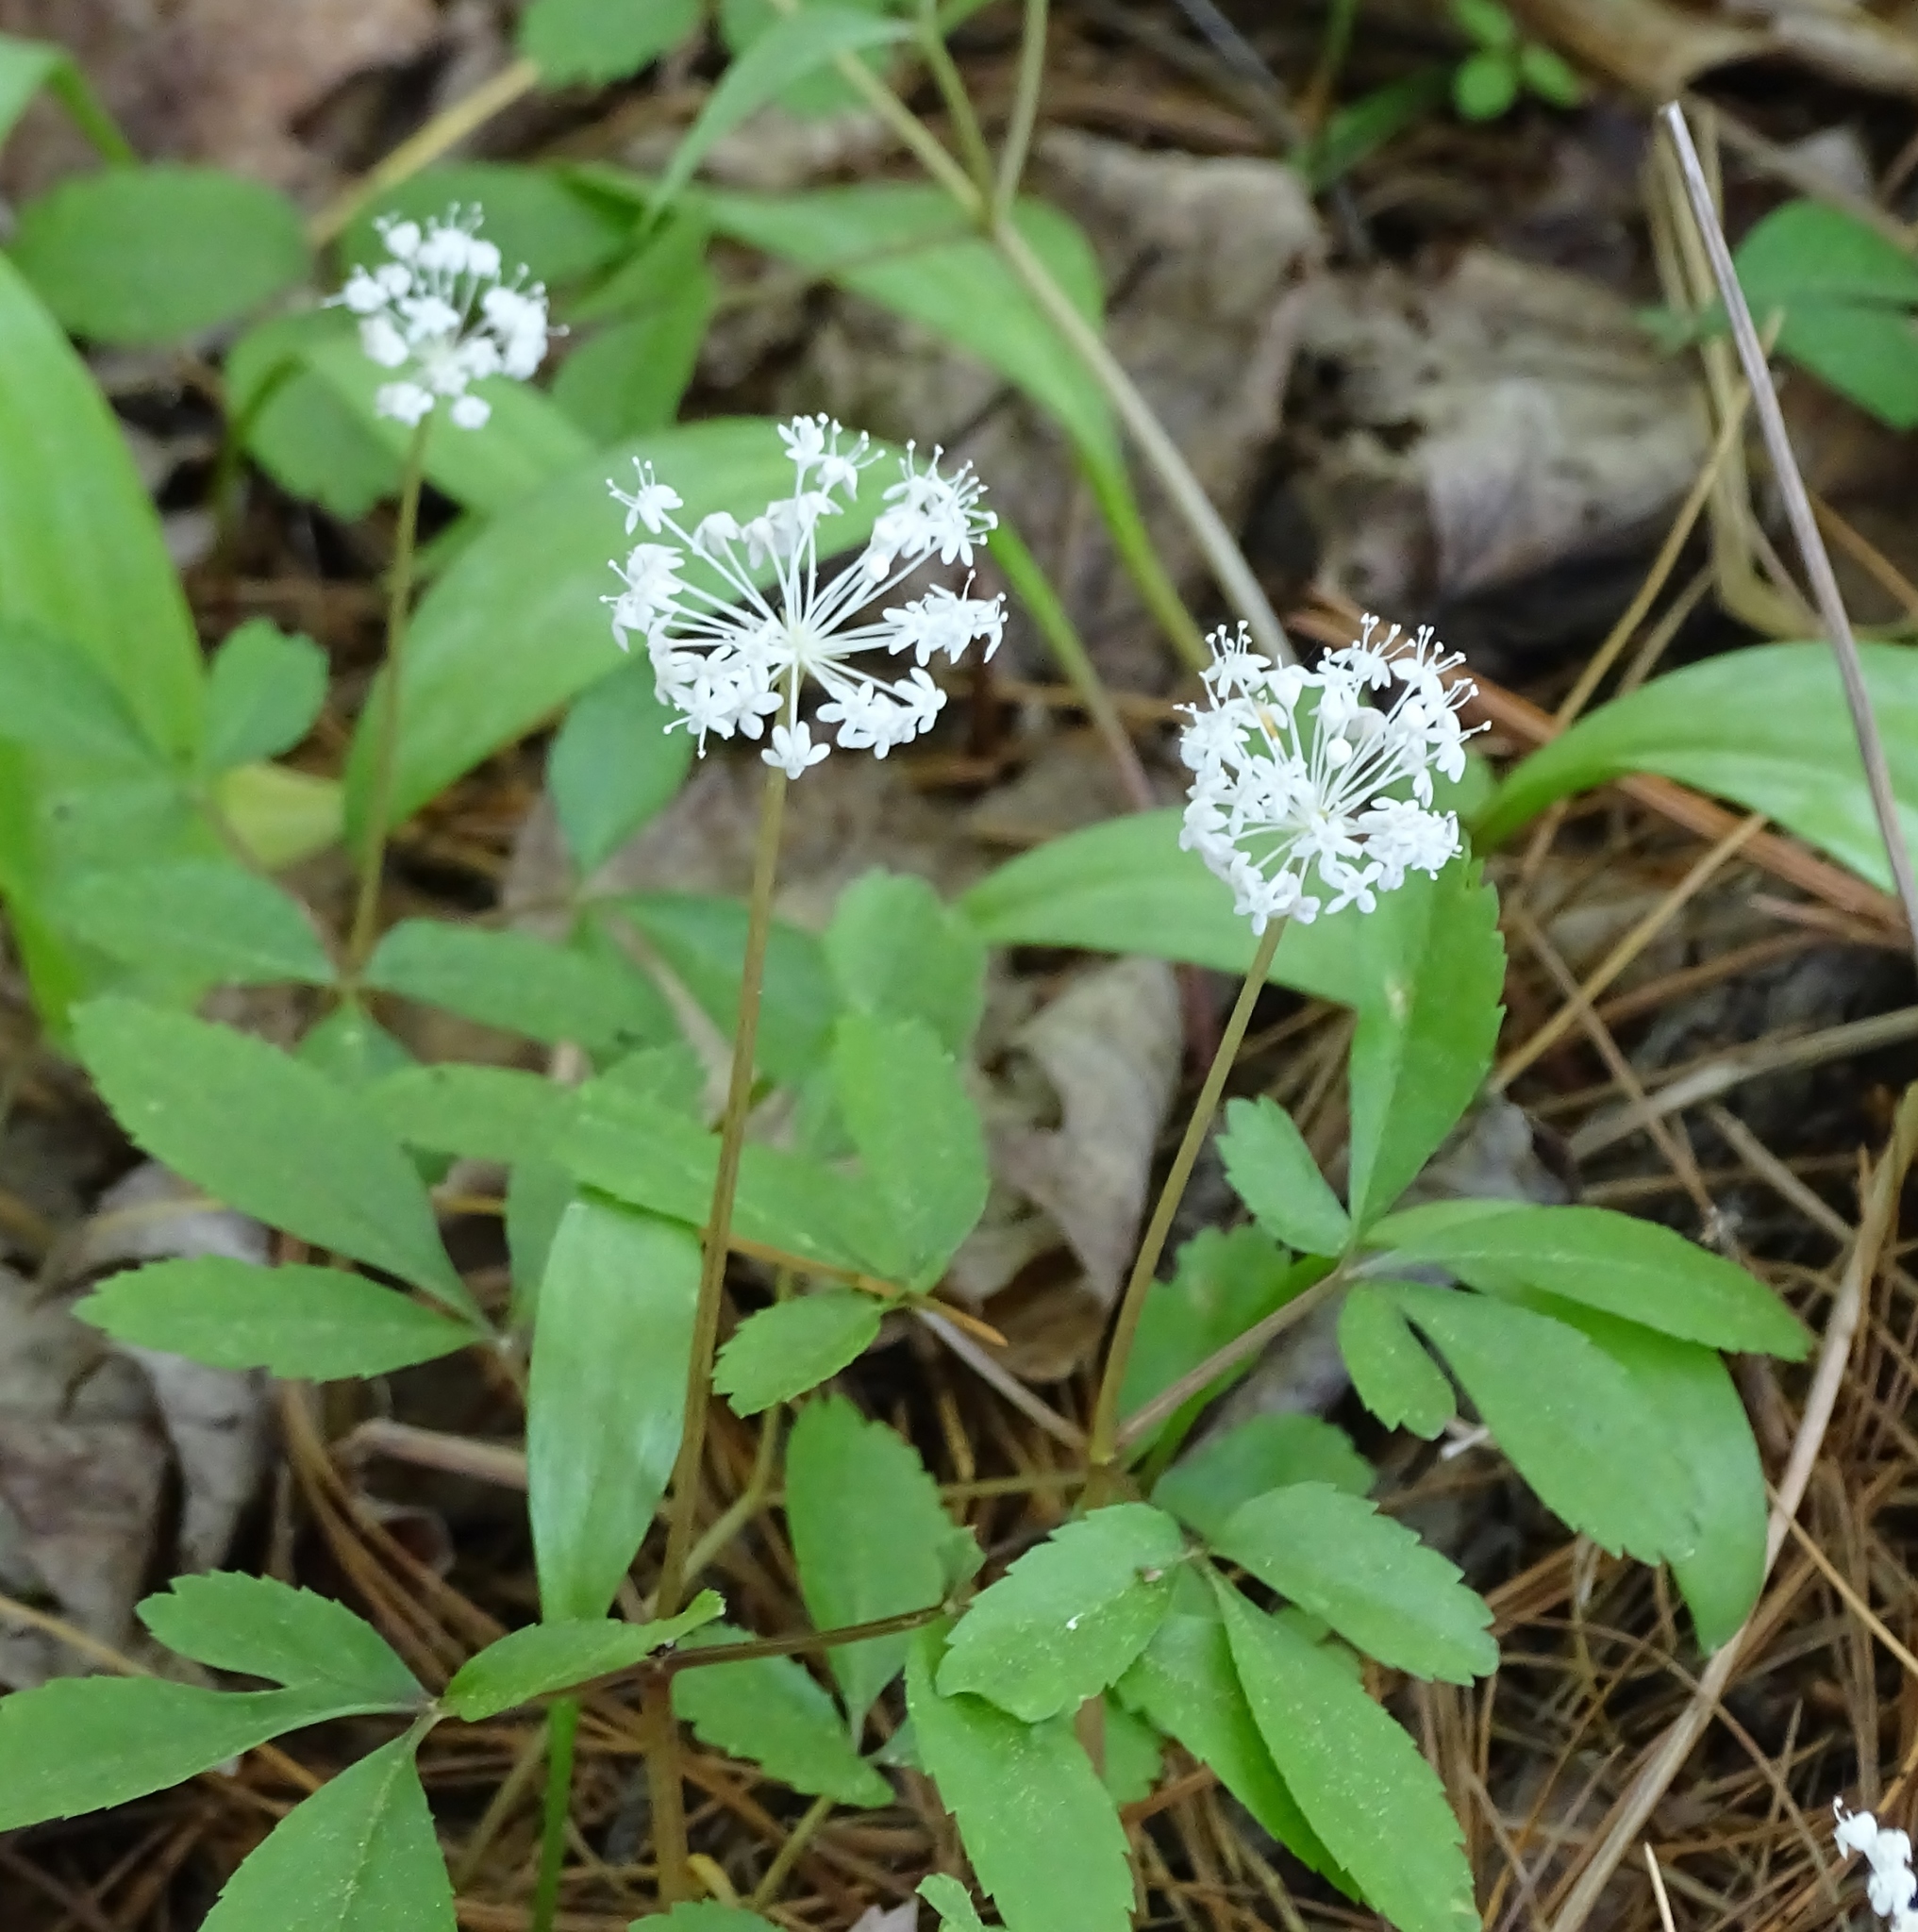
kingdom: Plantae
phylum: Tracheophyta
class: Magnoliopsida
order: Apiales
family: Araliaceae
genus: Panax
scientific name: Panax trifolius
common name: Dwarf ginseng
